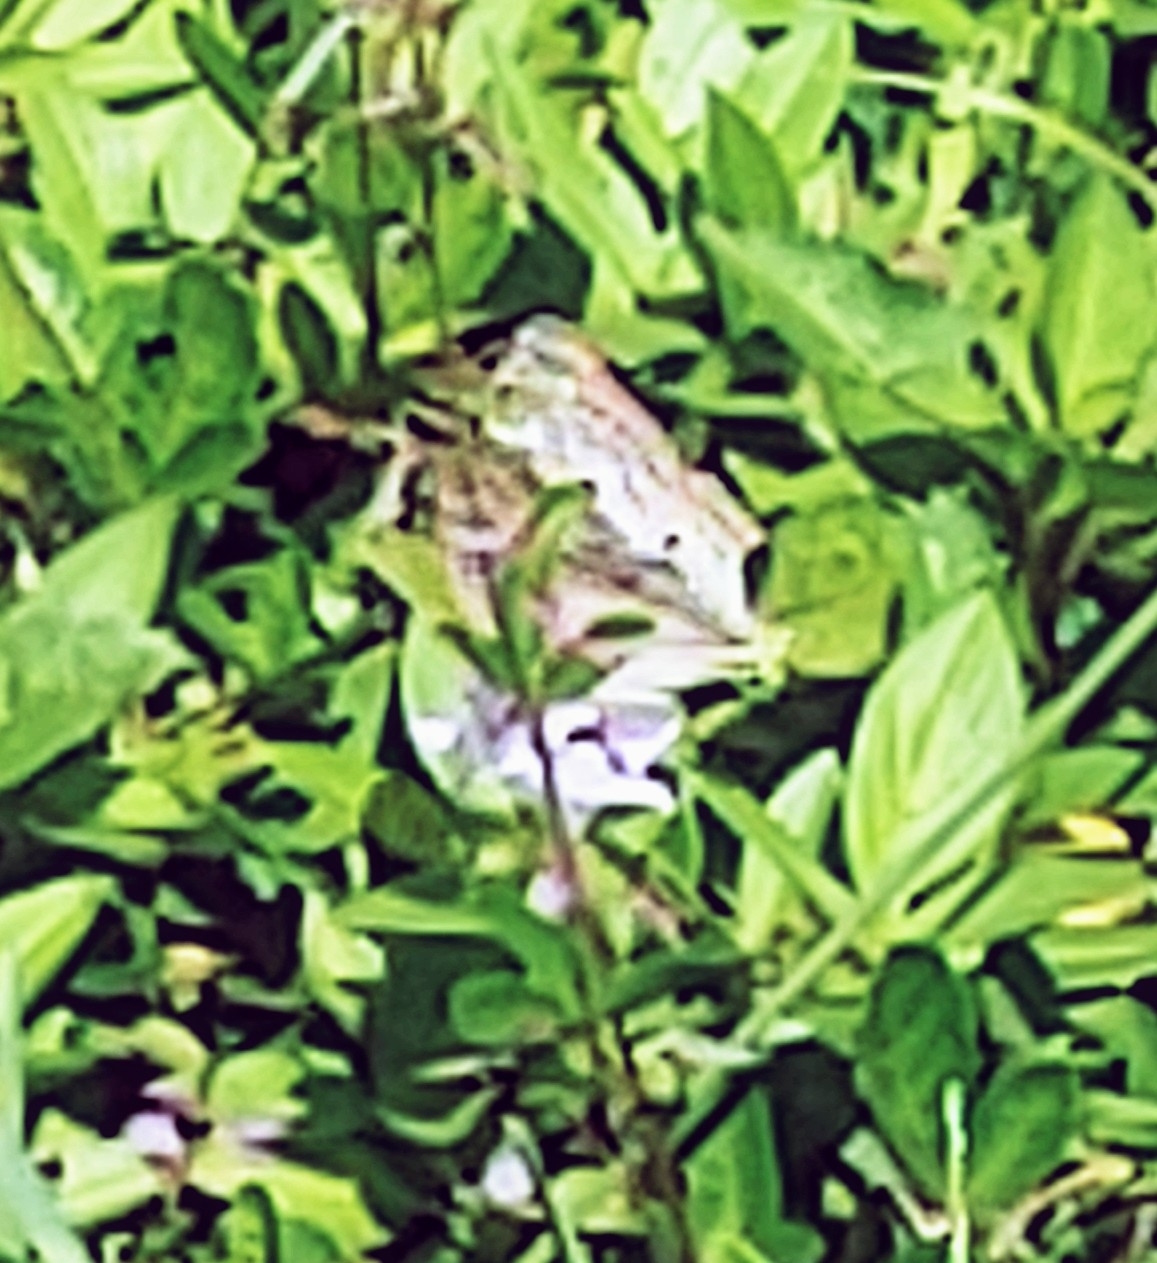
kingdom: Animalia
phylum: Arthropoda
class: Insecta
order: Lepidoptera
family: Nymphalidae
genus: Anartia
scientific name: Anartia jatrophae
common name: White peacock
